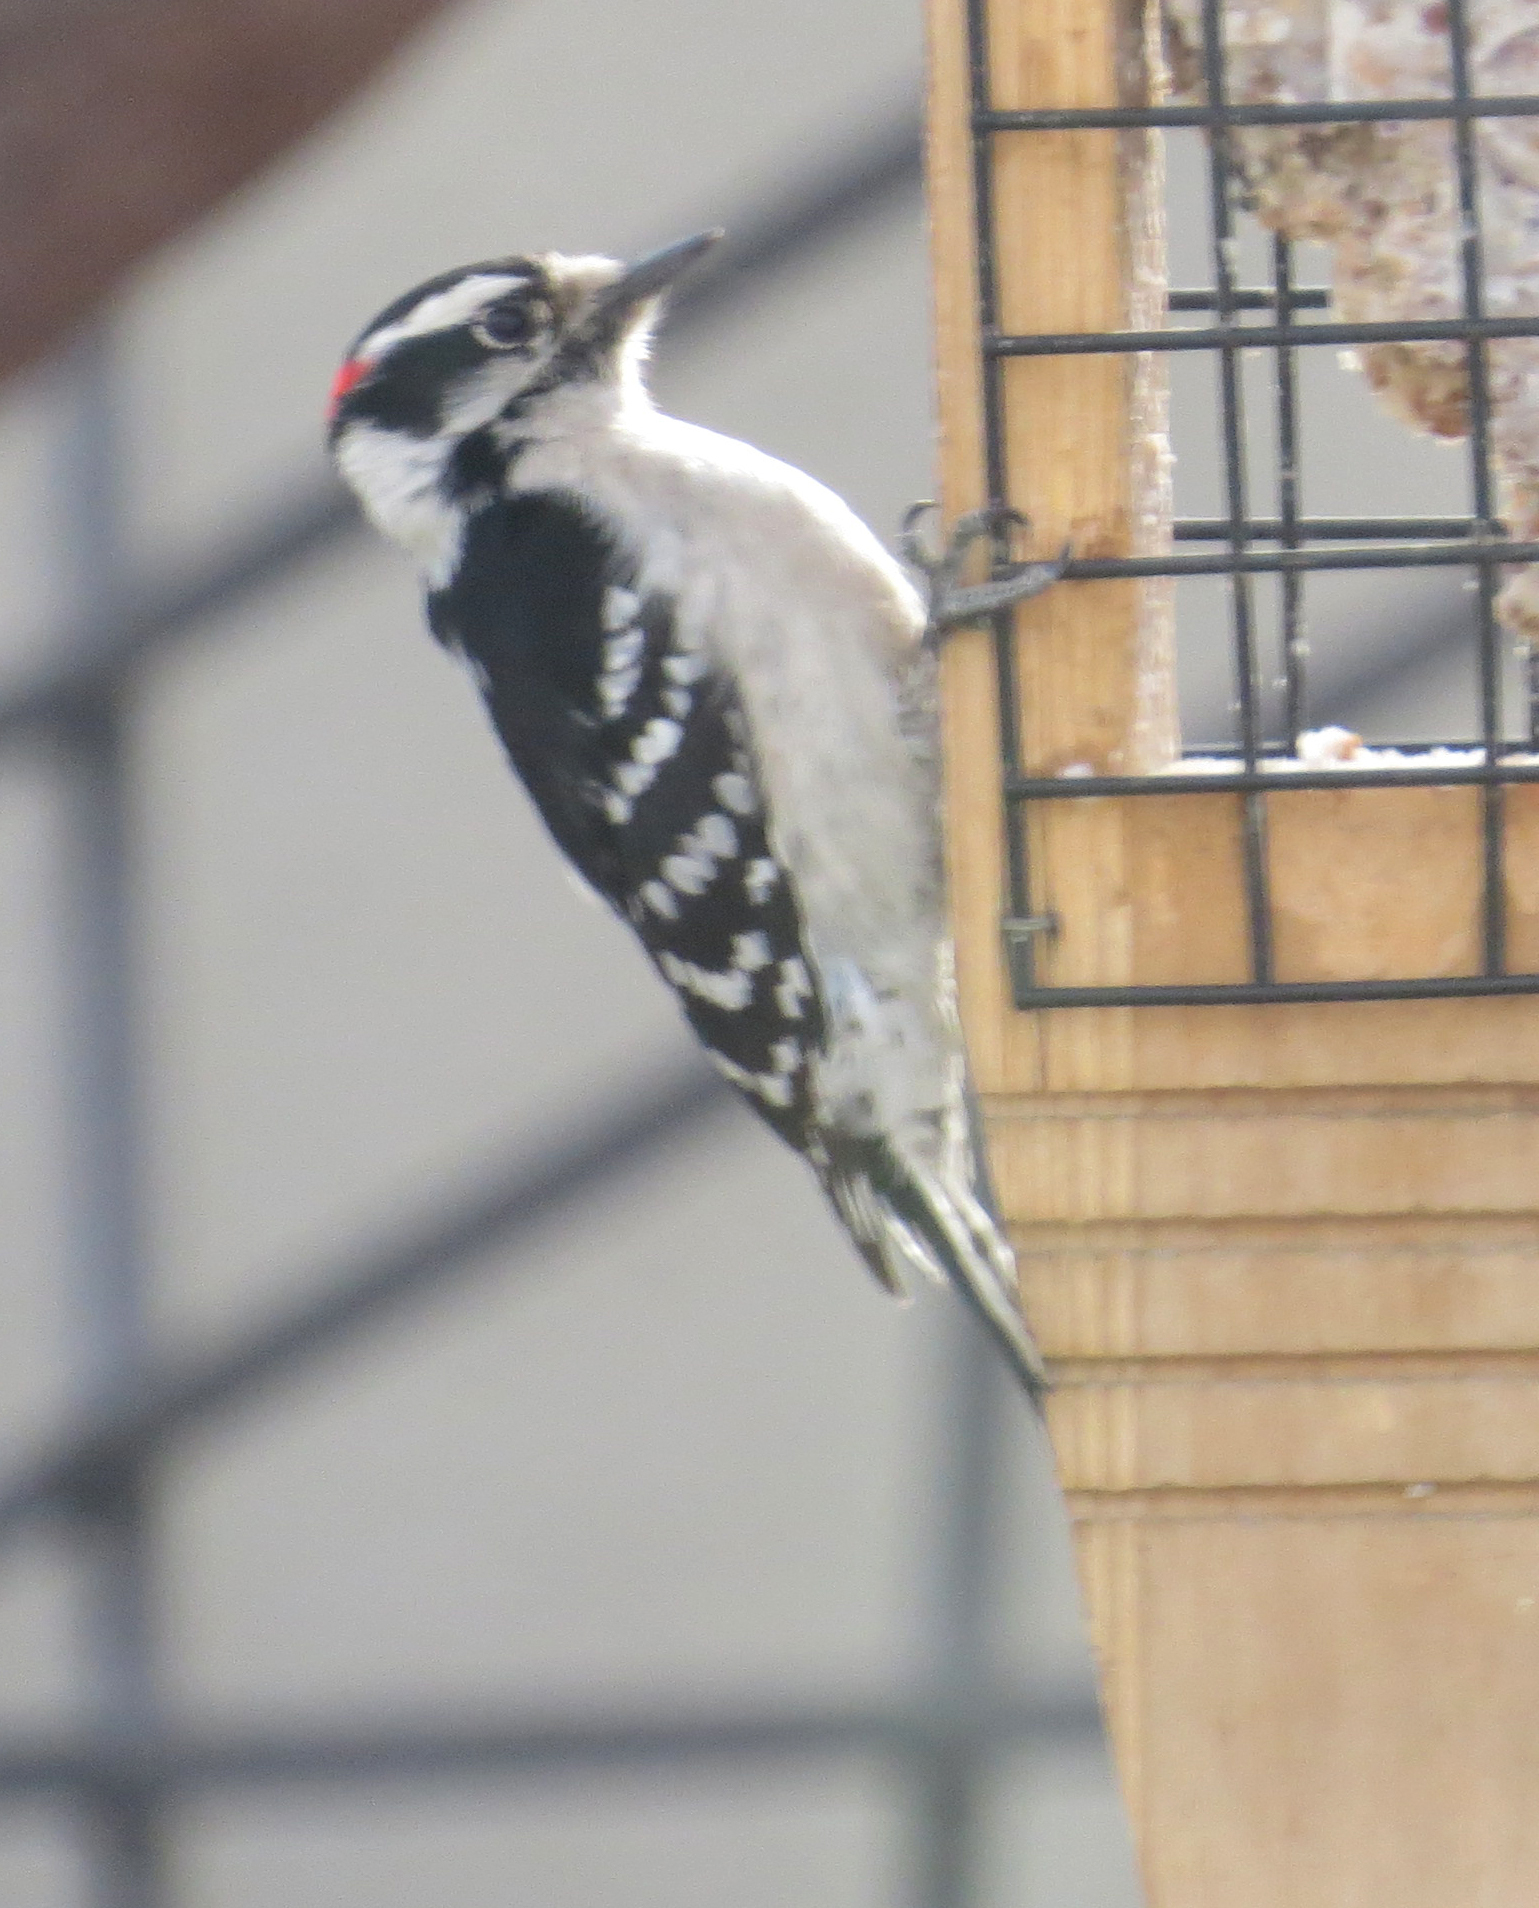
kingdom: Animalia
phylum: Chordata
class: Aves
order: Piciformes
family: Picidae
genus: Dryobates
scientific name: Dryobates pubescens
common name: Downy woodpecker
